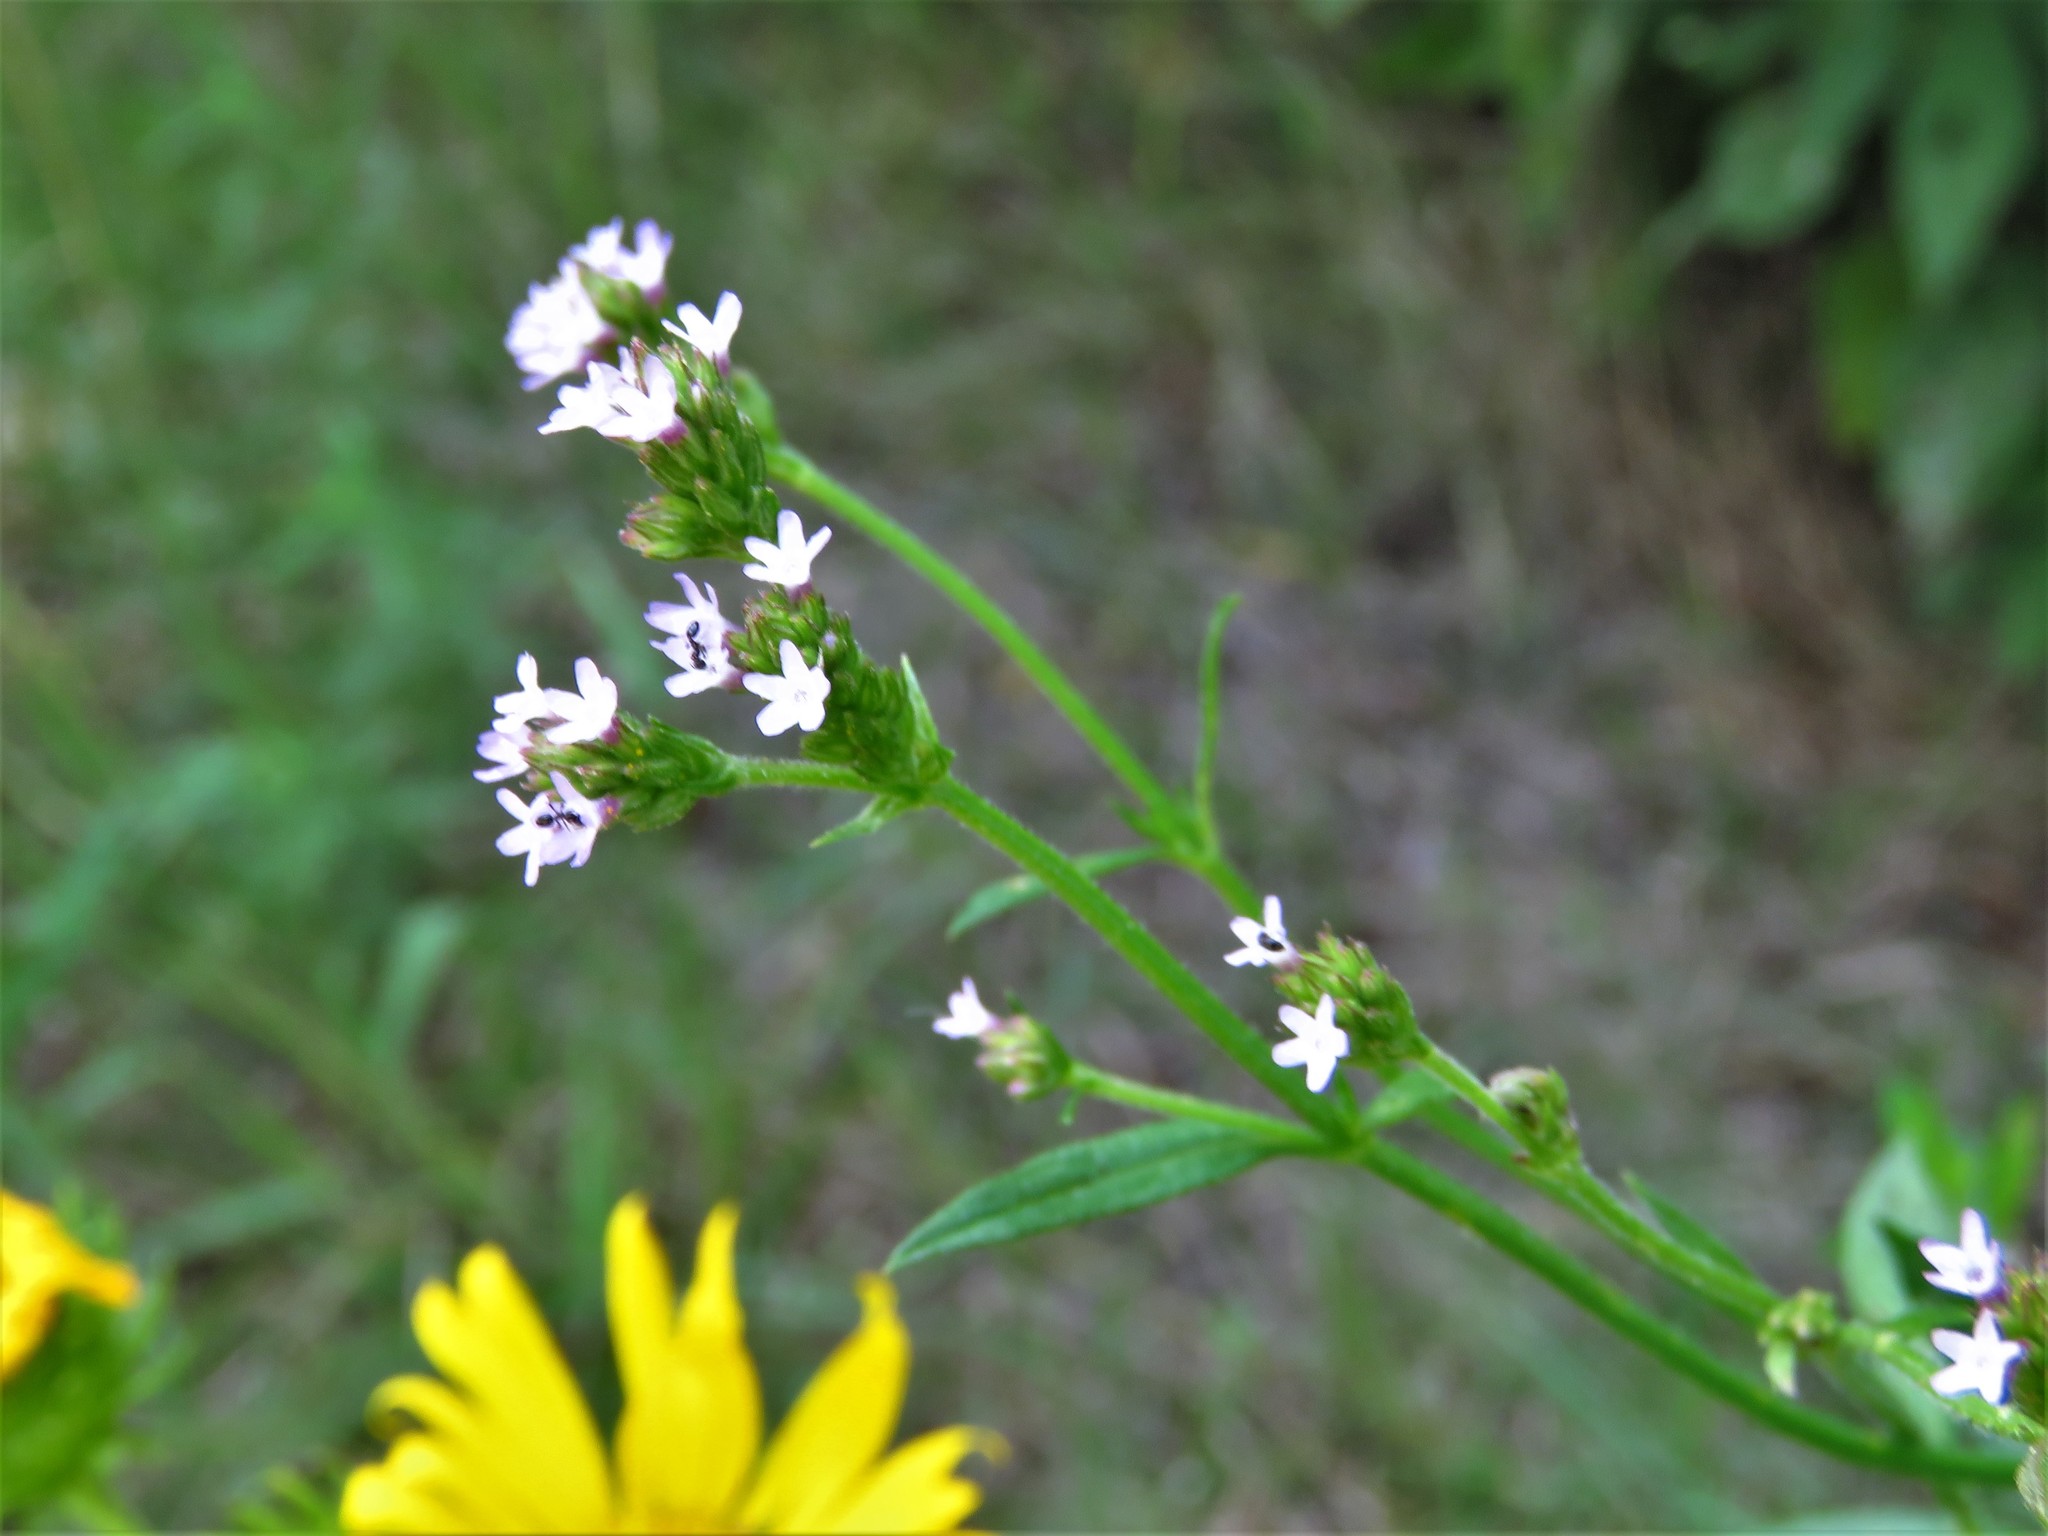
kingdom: Plantae
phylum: Tracheophyta
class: Magnoliopsida
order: Lamiales
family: Verbenaceae
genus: Verbena
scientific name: Verbena brasiliensis
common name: Brazilian vervain
